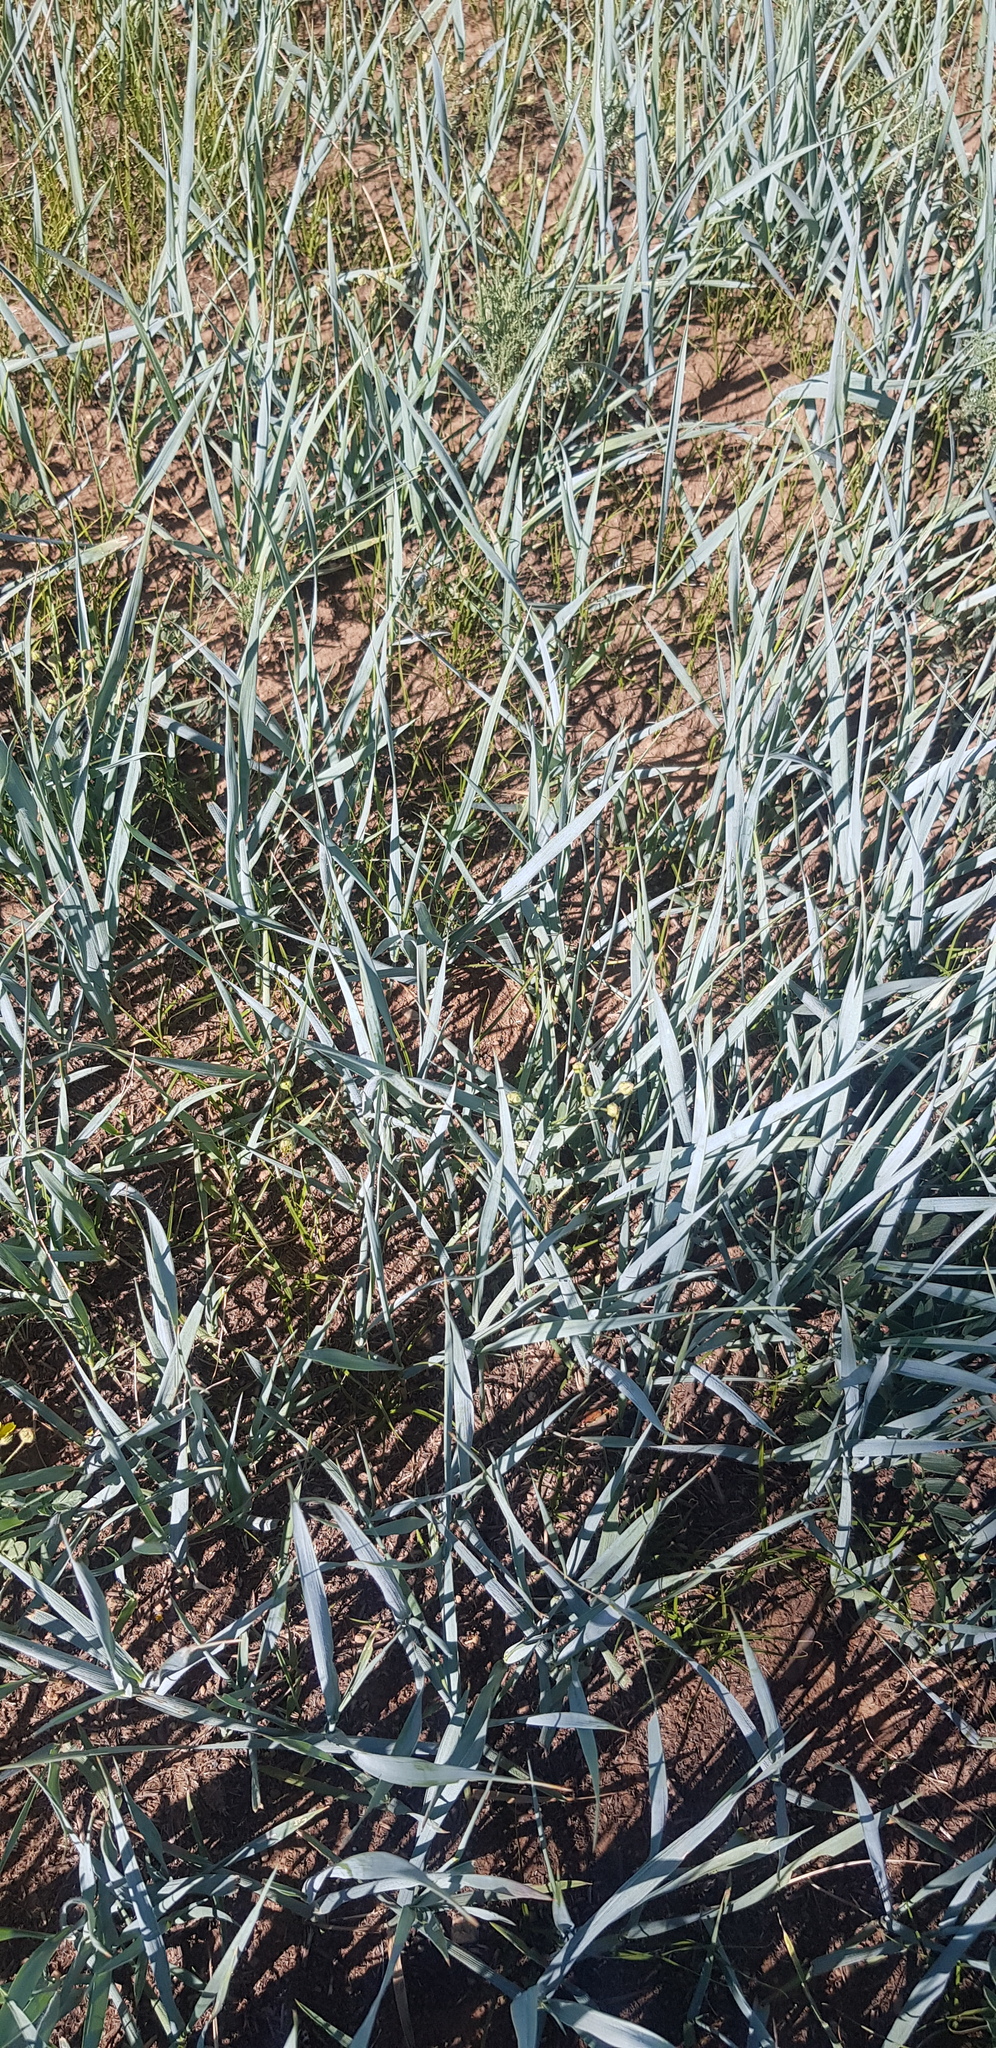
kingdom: Plantae
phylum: Tracheophyta
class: Liliopsida
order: Poales
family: Poaceae
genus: Leymus
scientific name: Leymus chinensis
